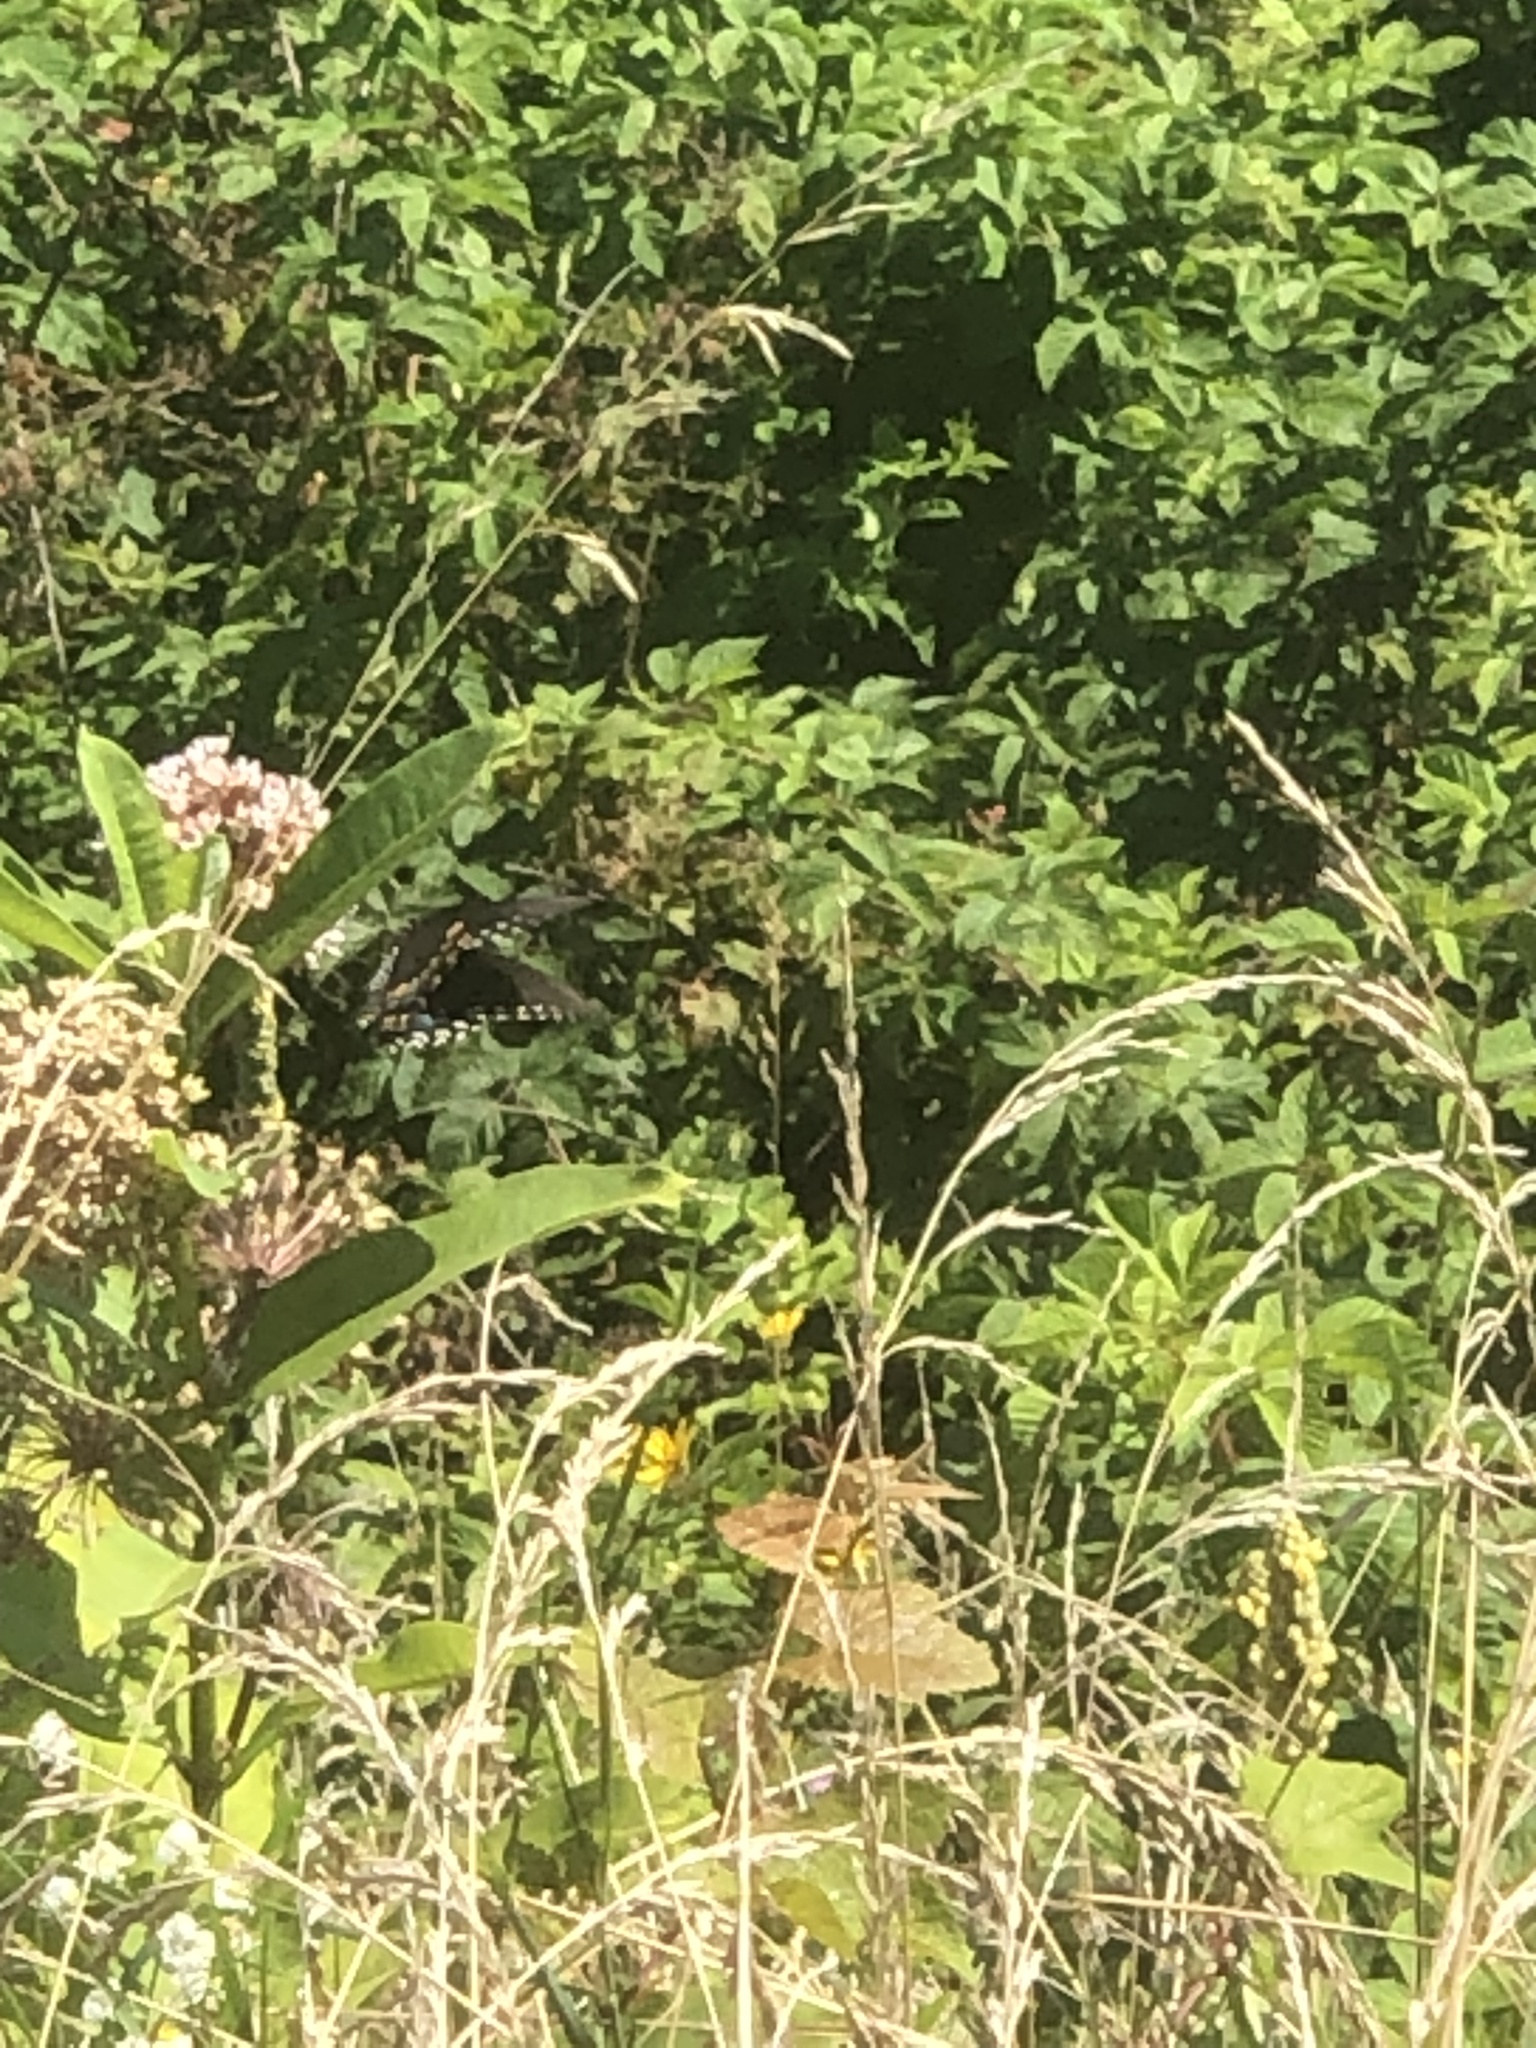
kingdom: Animalia
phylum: Arthropoda
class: Insecta
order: Lepidoptera
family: Papilionidae
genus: Papilio
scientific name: Papilio troilus
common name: Spicebush swallowtail
